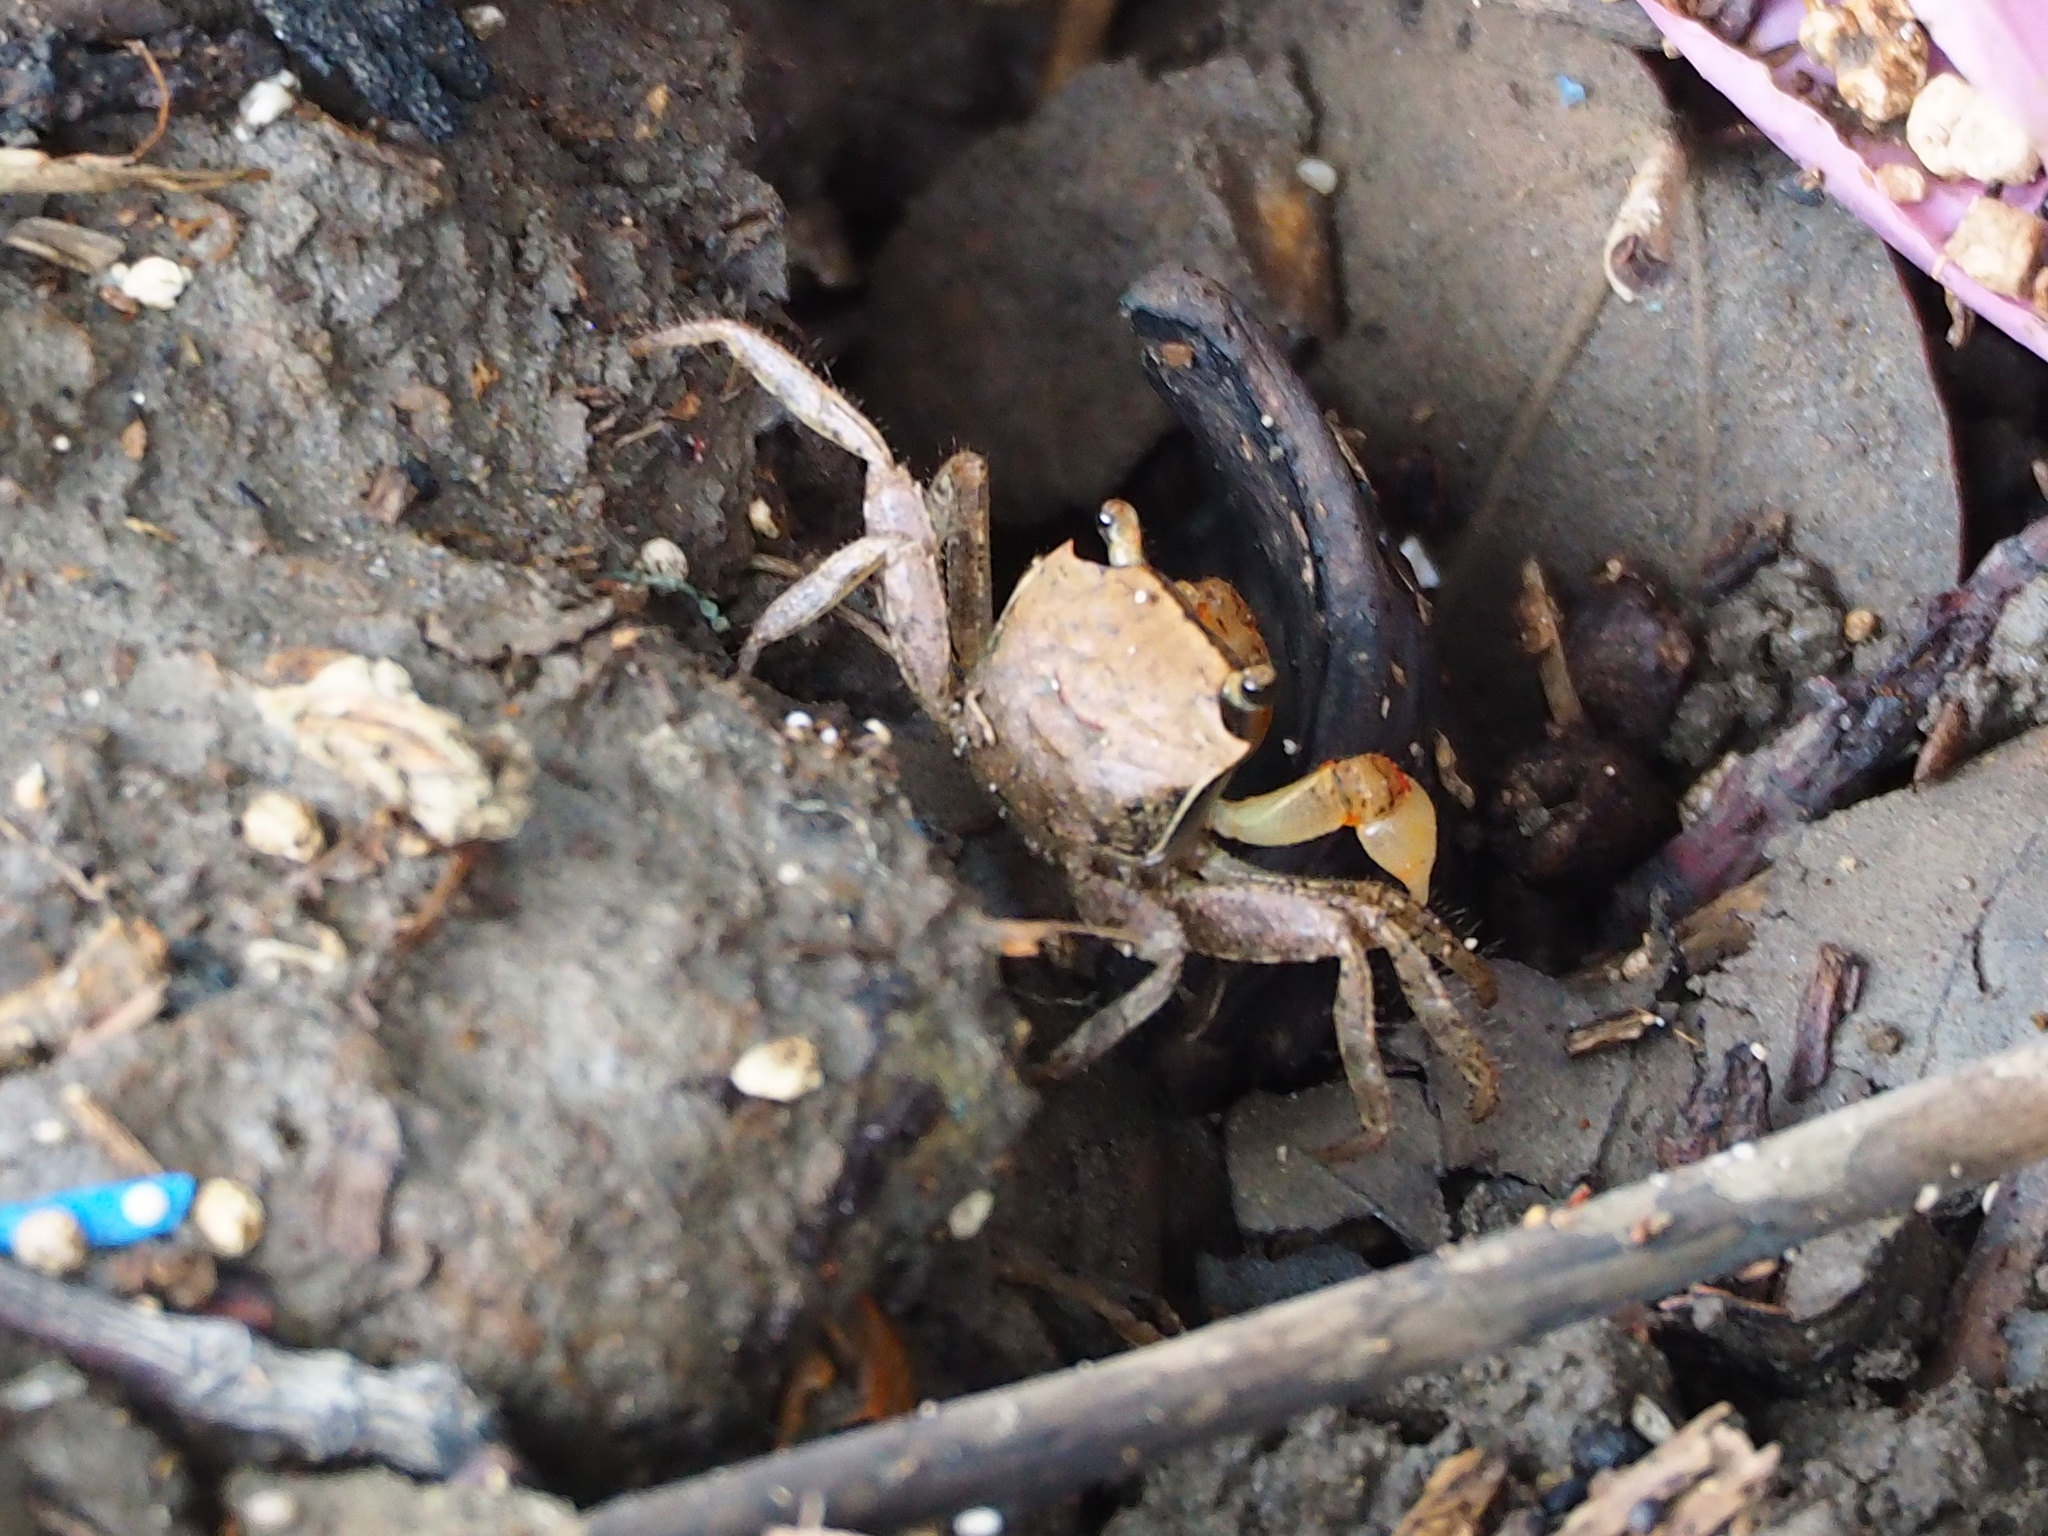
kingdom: Animalia
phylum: Arthropoda
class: Malacostraca
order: Decapoda
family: Sesarmidae
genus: Chiromantes
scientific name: Chiromantes haematocheir
